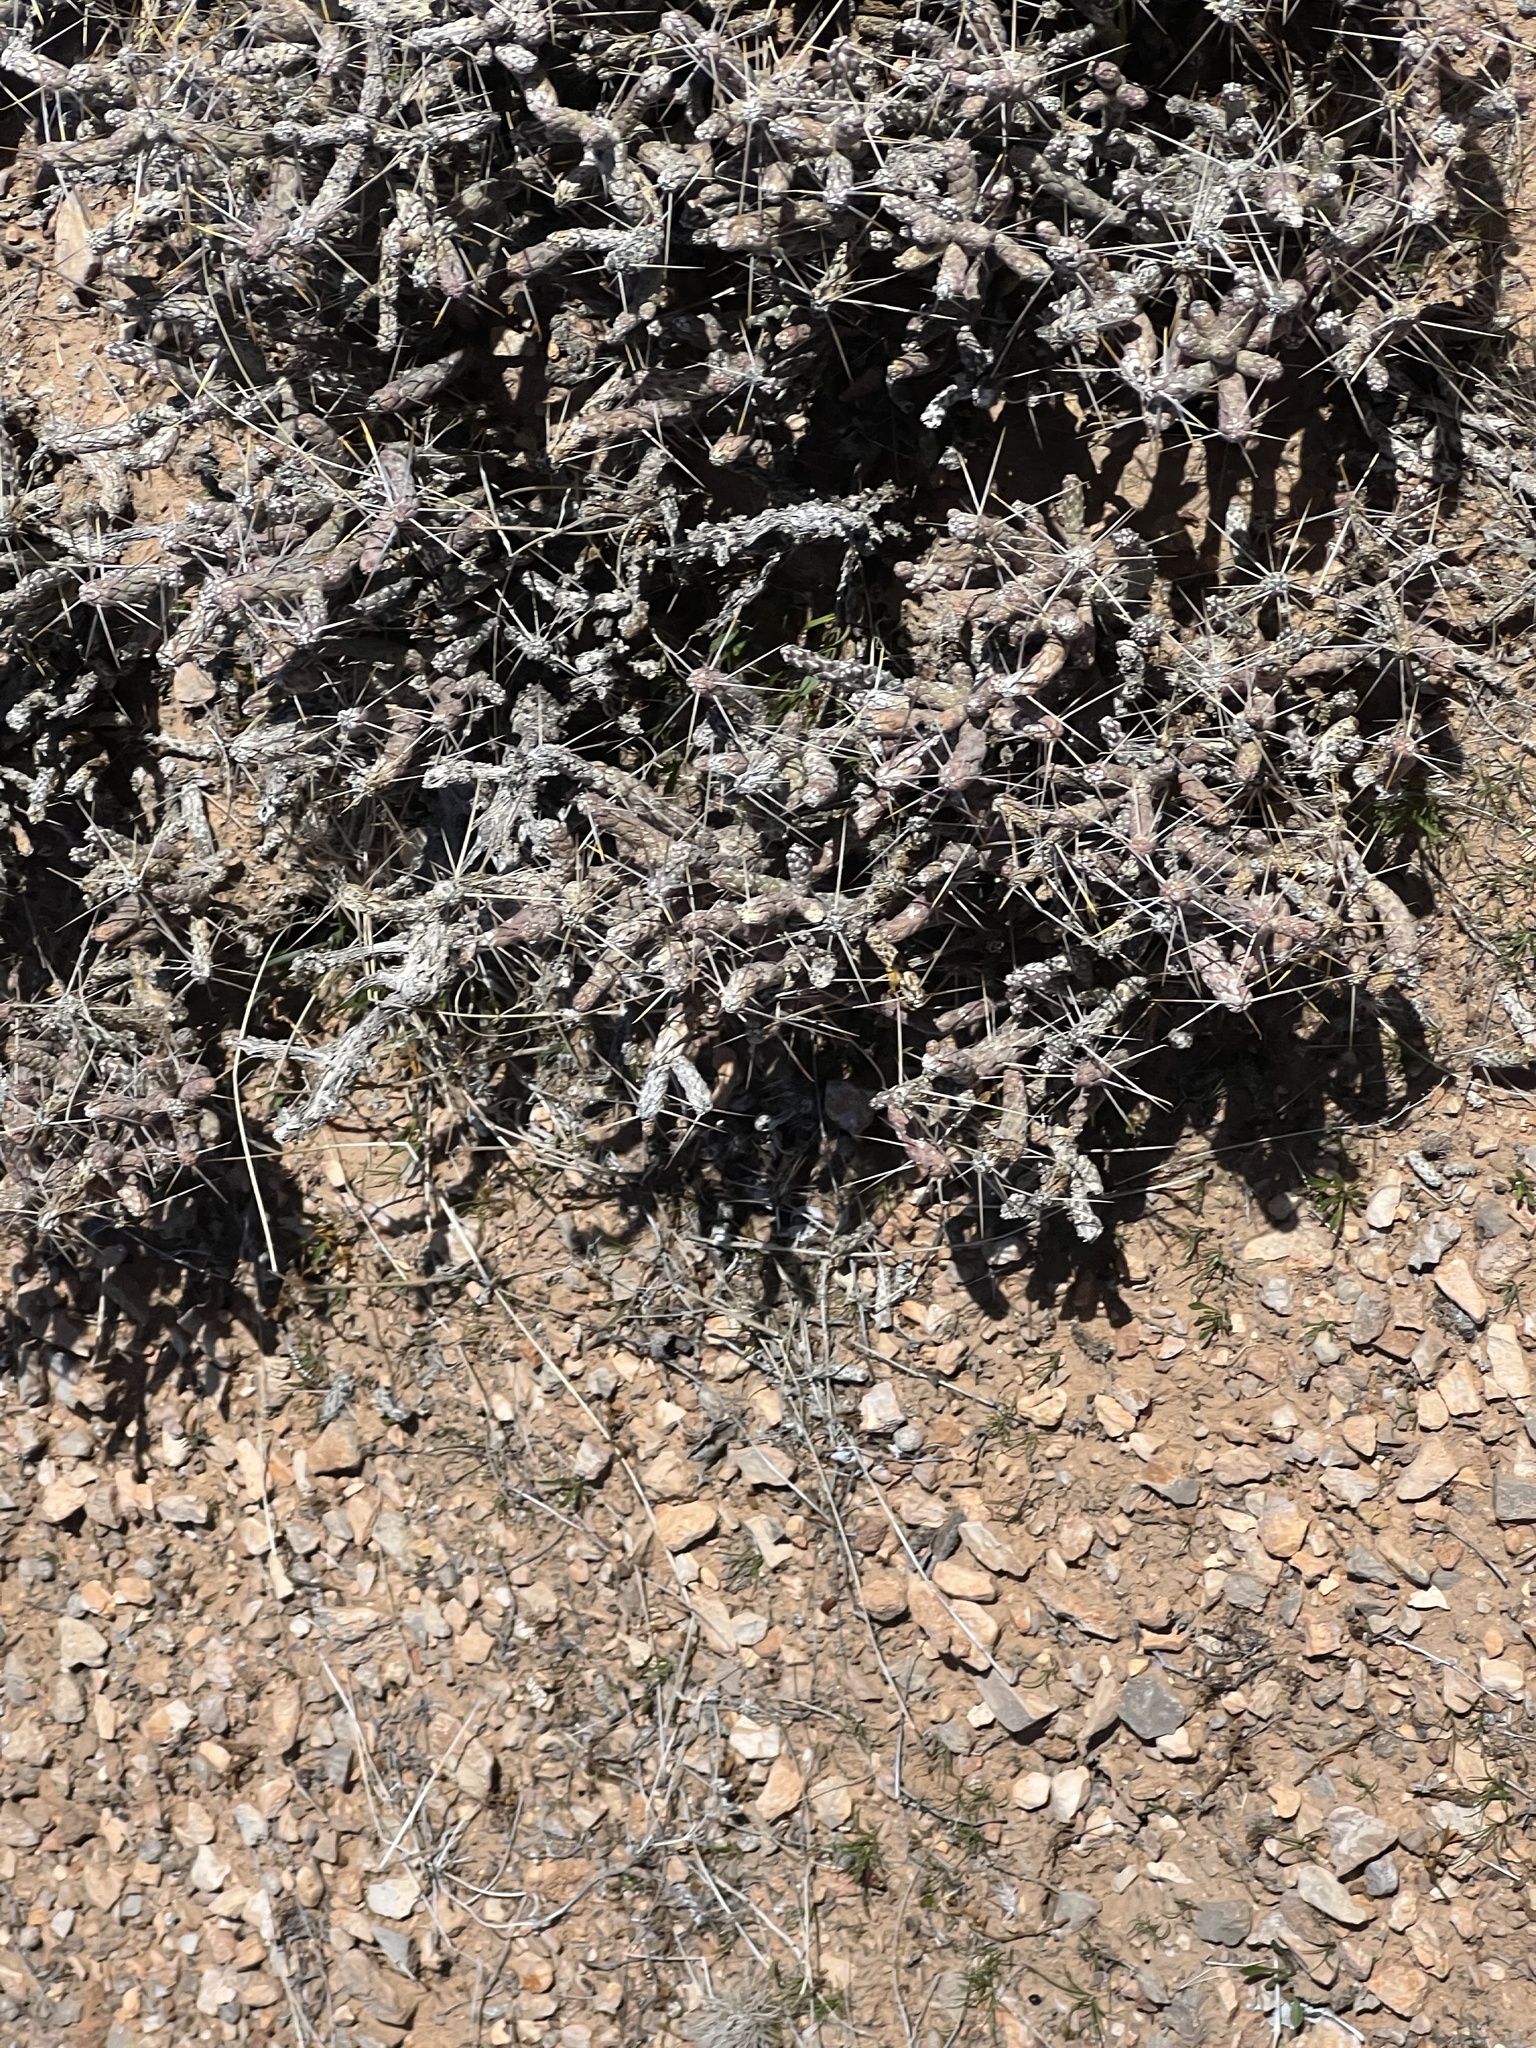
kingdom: Plantae
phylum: Tracheophyta
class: Magnoliopsida
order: Caryophyllales
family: Cactaceae
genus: Cylindropuntia
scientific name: Cylindropuntia ramosissima
